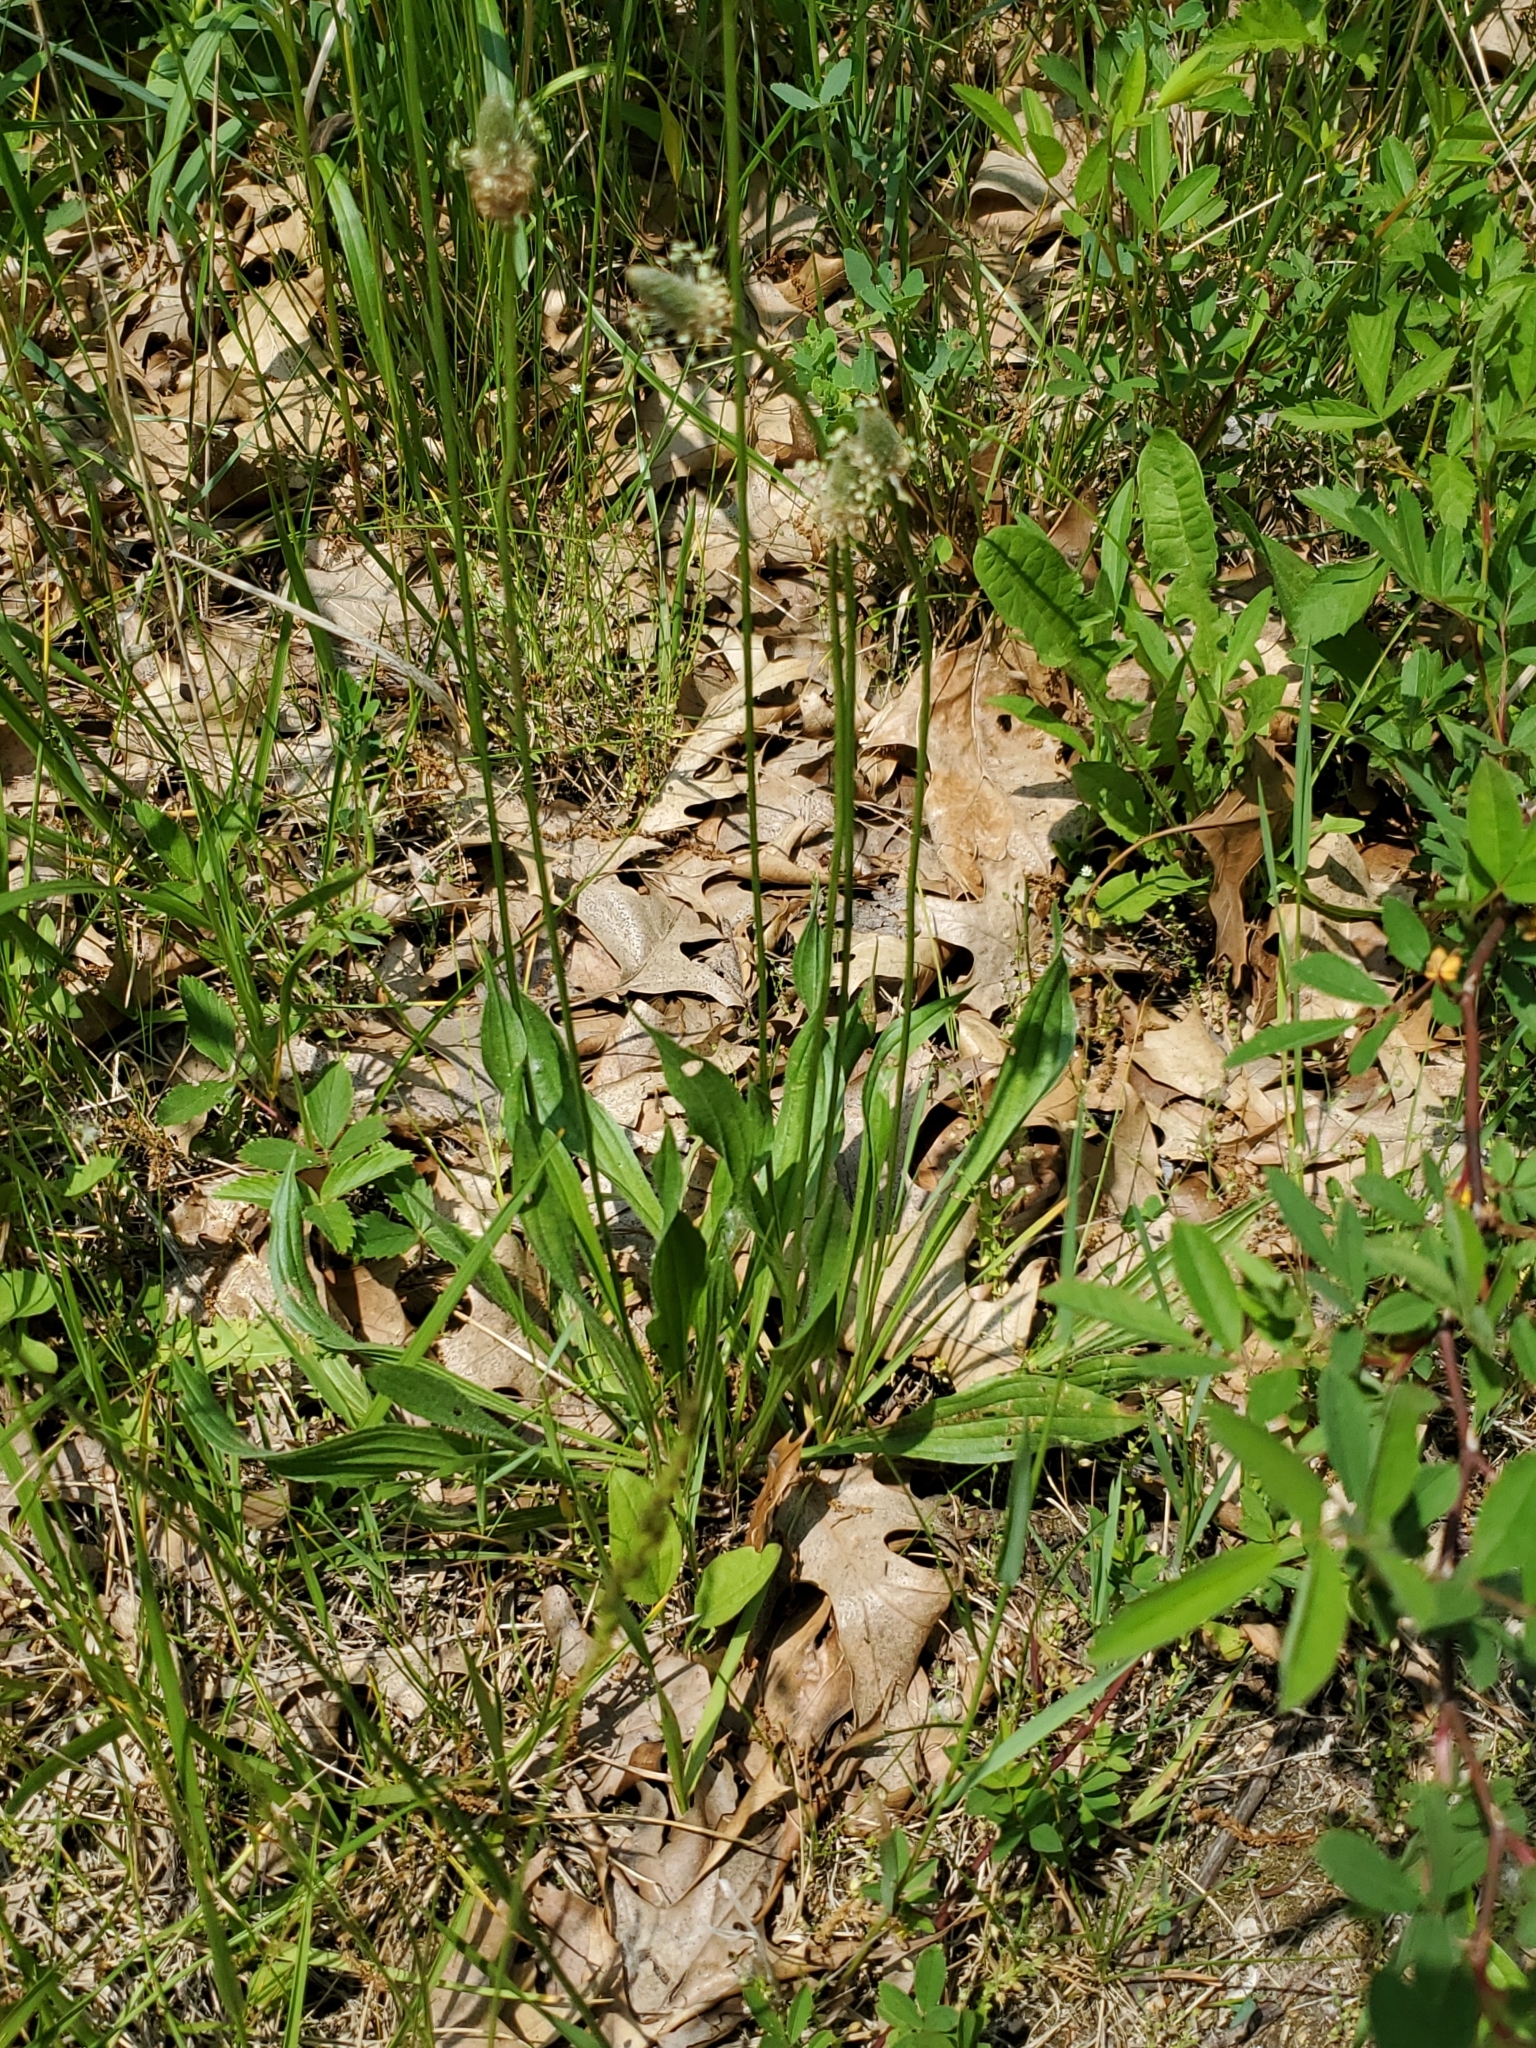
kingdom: Plantae
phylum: Tracheophyta
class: Magnoliopsida
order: Lamiales
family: Plantaginaceae
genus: Plantago
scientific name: Plantago lanceolata
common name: Ribwort plantain
